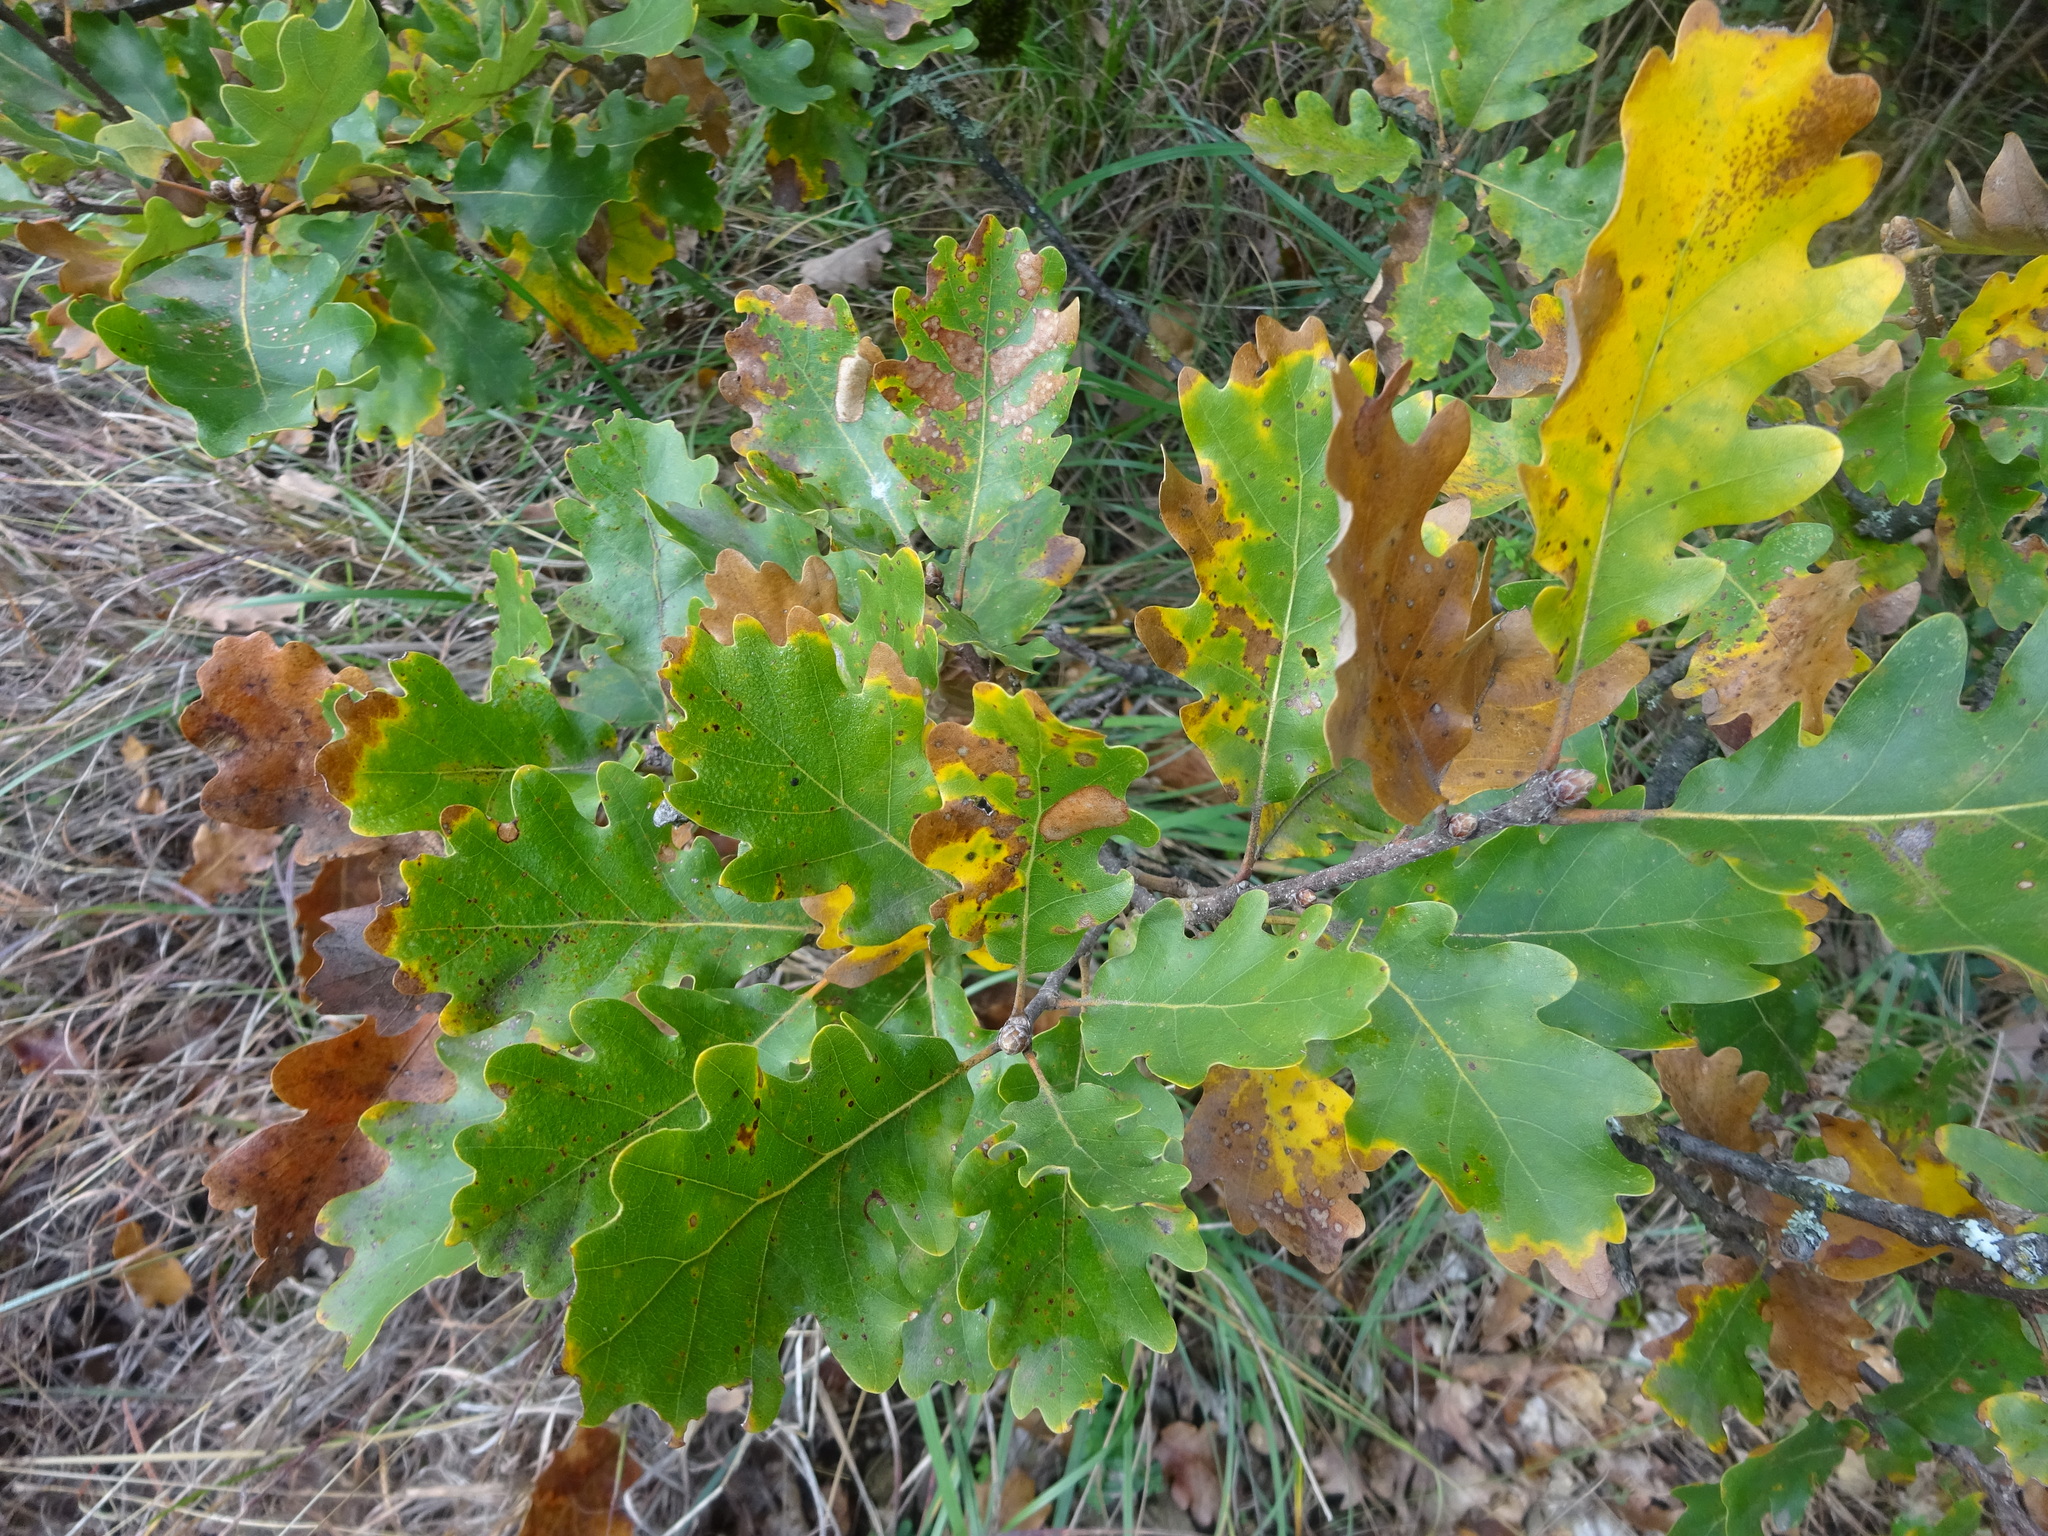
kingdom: Plantae
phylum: Tracheophyta
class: Magnoliopsida
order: Fagales
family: Fagaceae
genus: Quercus
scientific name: Quercus petraea
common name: Sessile oak
